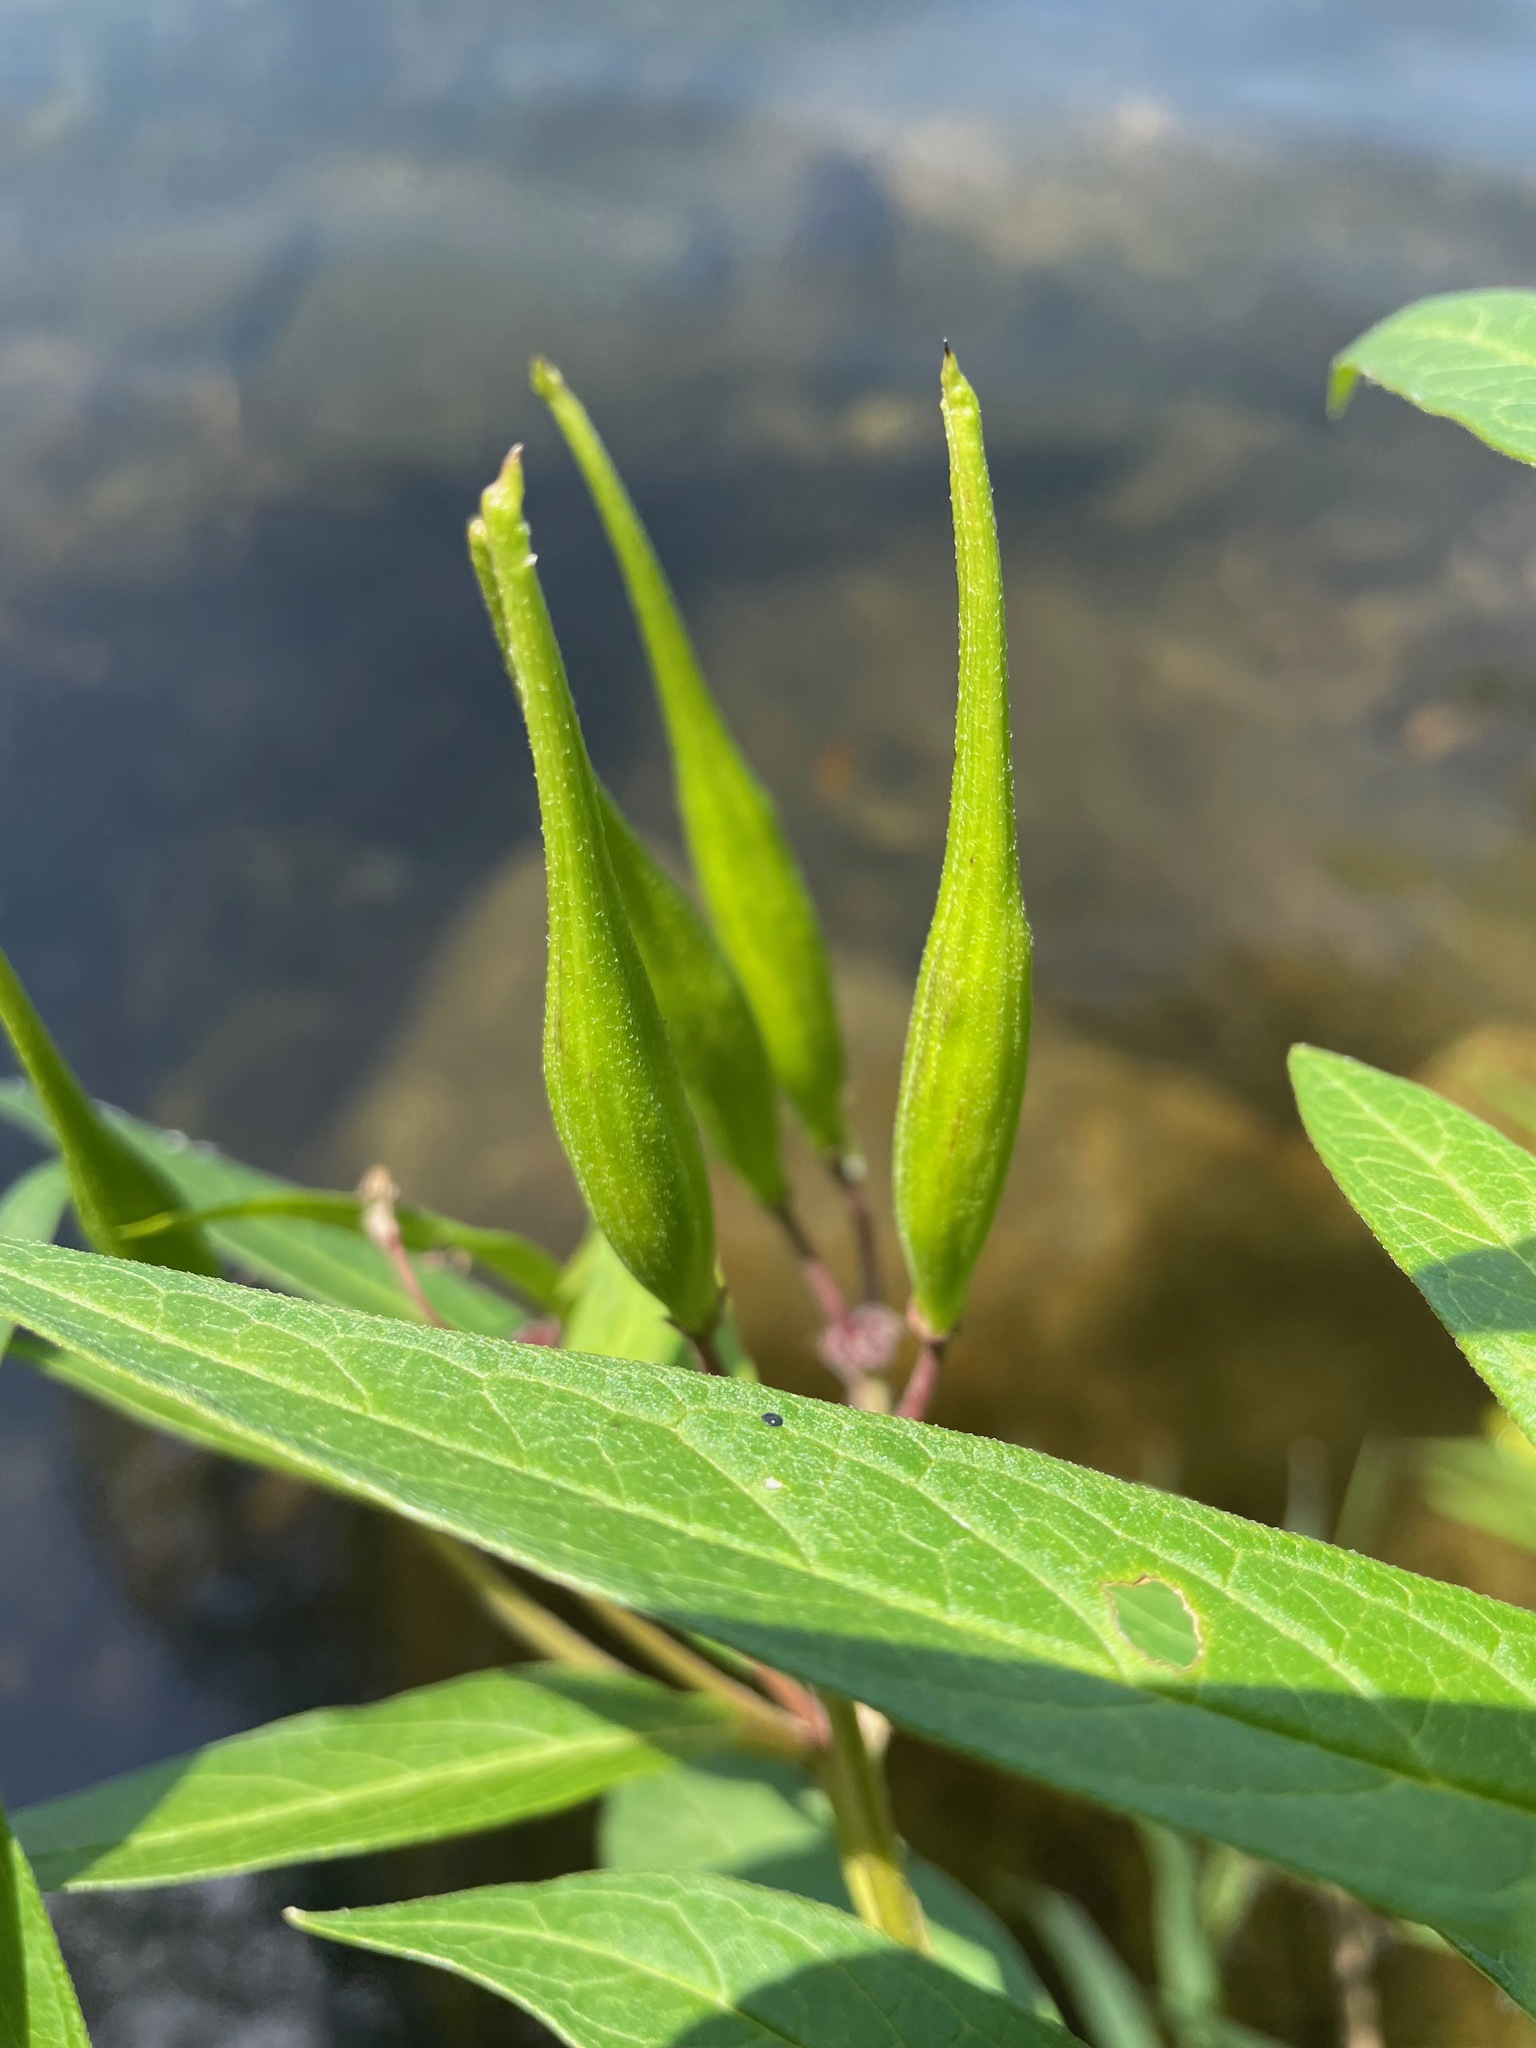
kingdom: Plantae
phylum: Tracheophyta
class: Magnoliopsida
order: Gentianales
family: Apocynaceae
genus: Asclepias
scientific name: Asclepias incarnata
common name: Swamp milkweed
